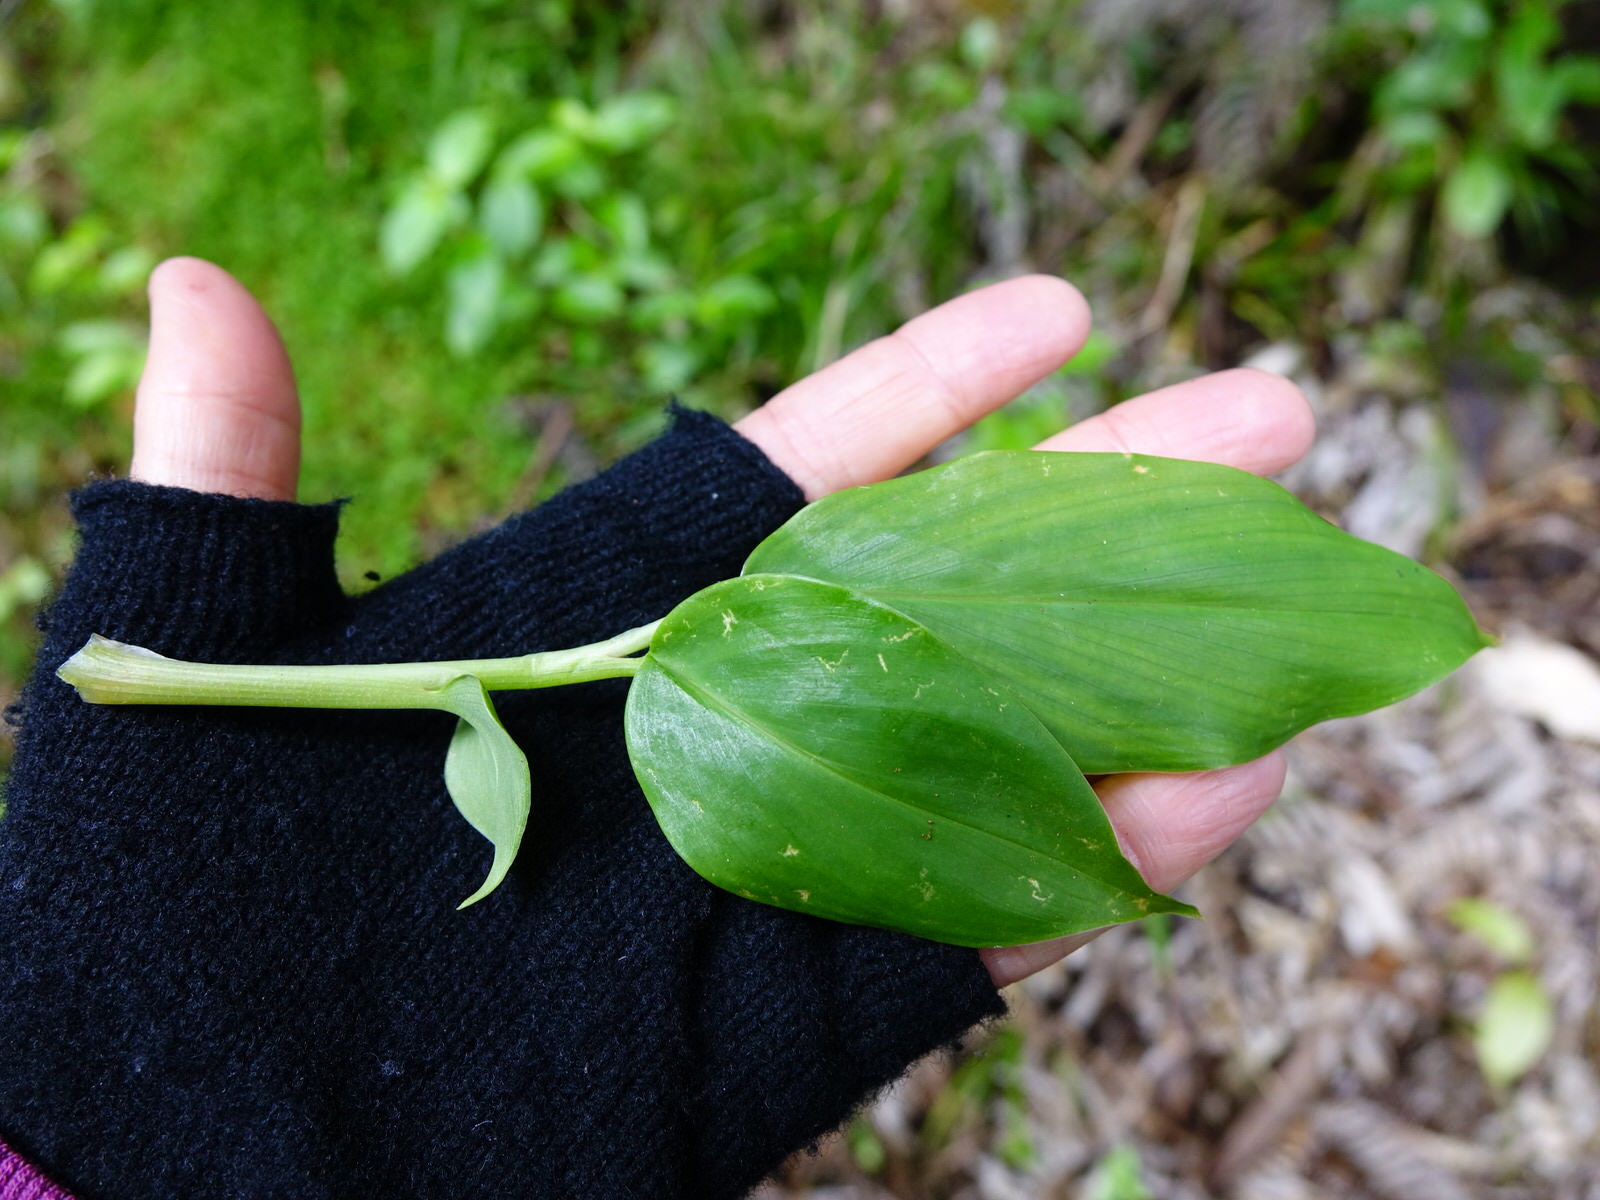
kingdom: Plantae
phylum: Tracheophyta
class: Liliopsida
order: Zingiberales
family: Zingiberaceae
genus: Hedychium
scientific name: Hedychium gardnerianum
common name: Himalayan ginger
